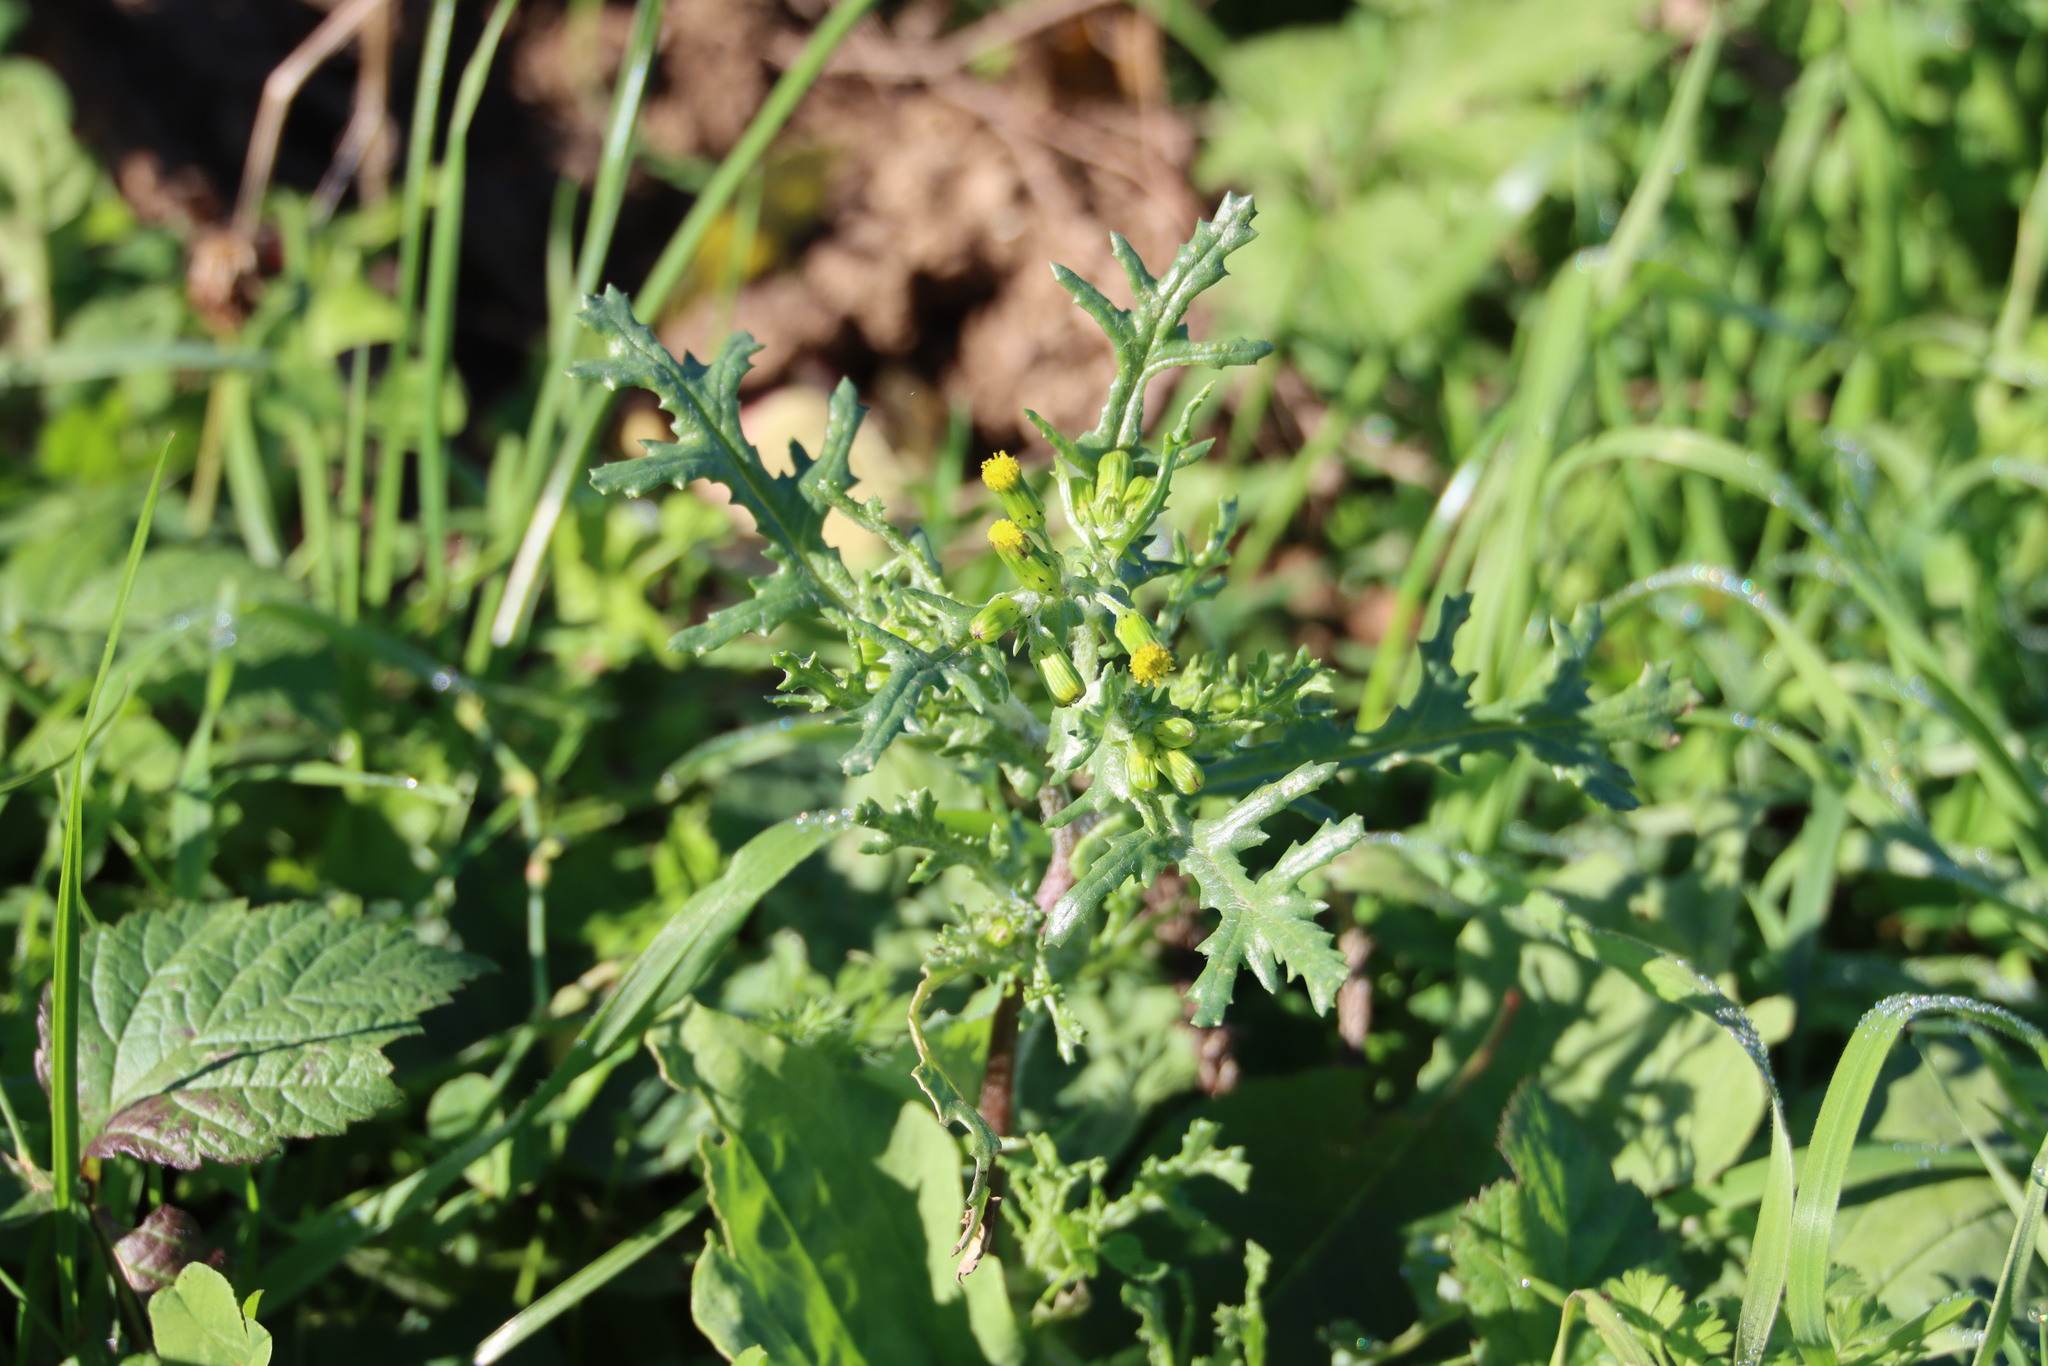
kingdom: Plantae
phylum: Tracheophyta
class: Magnoliopsida
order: Asterales
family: Asteraceae
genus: Senecio
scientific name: Senecio vulgaris
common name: Old-man-in-the-spring
